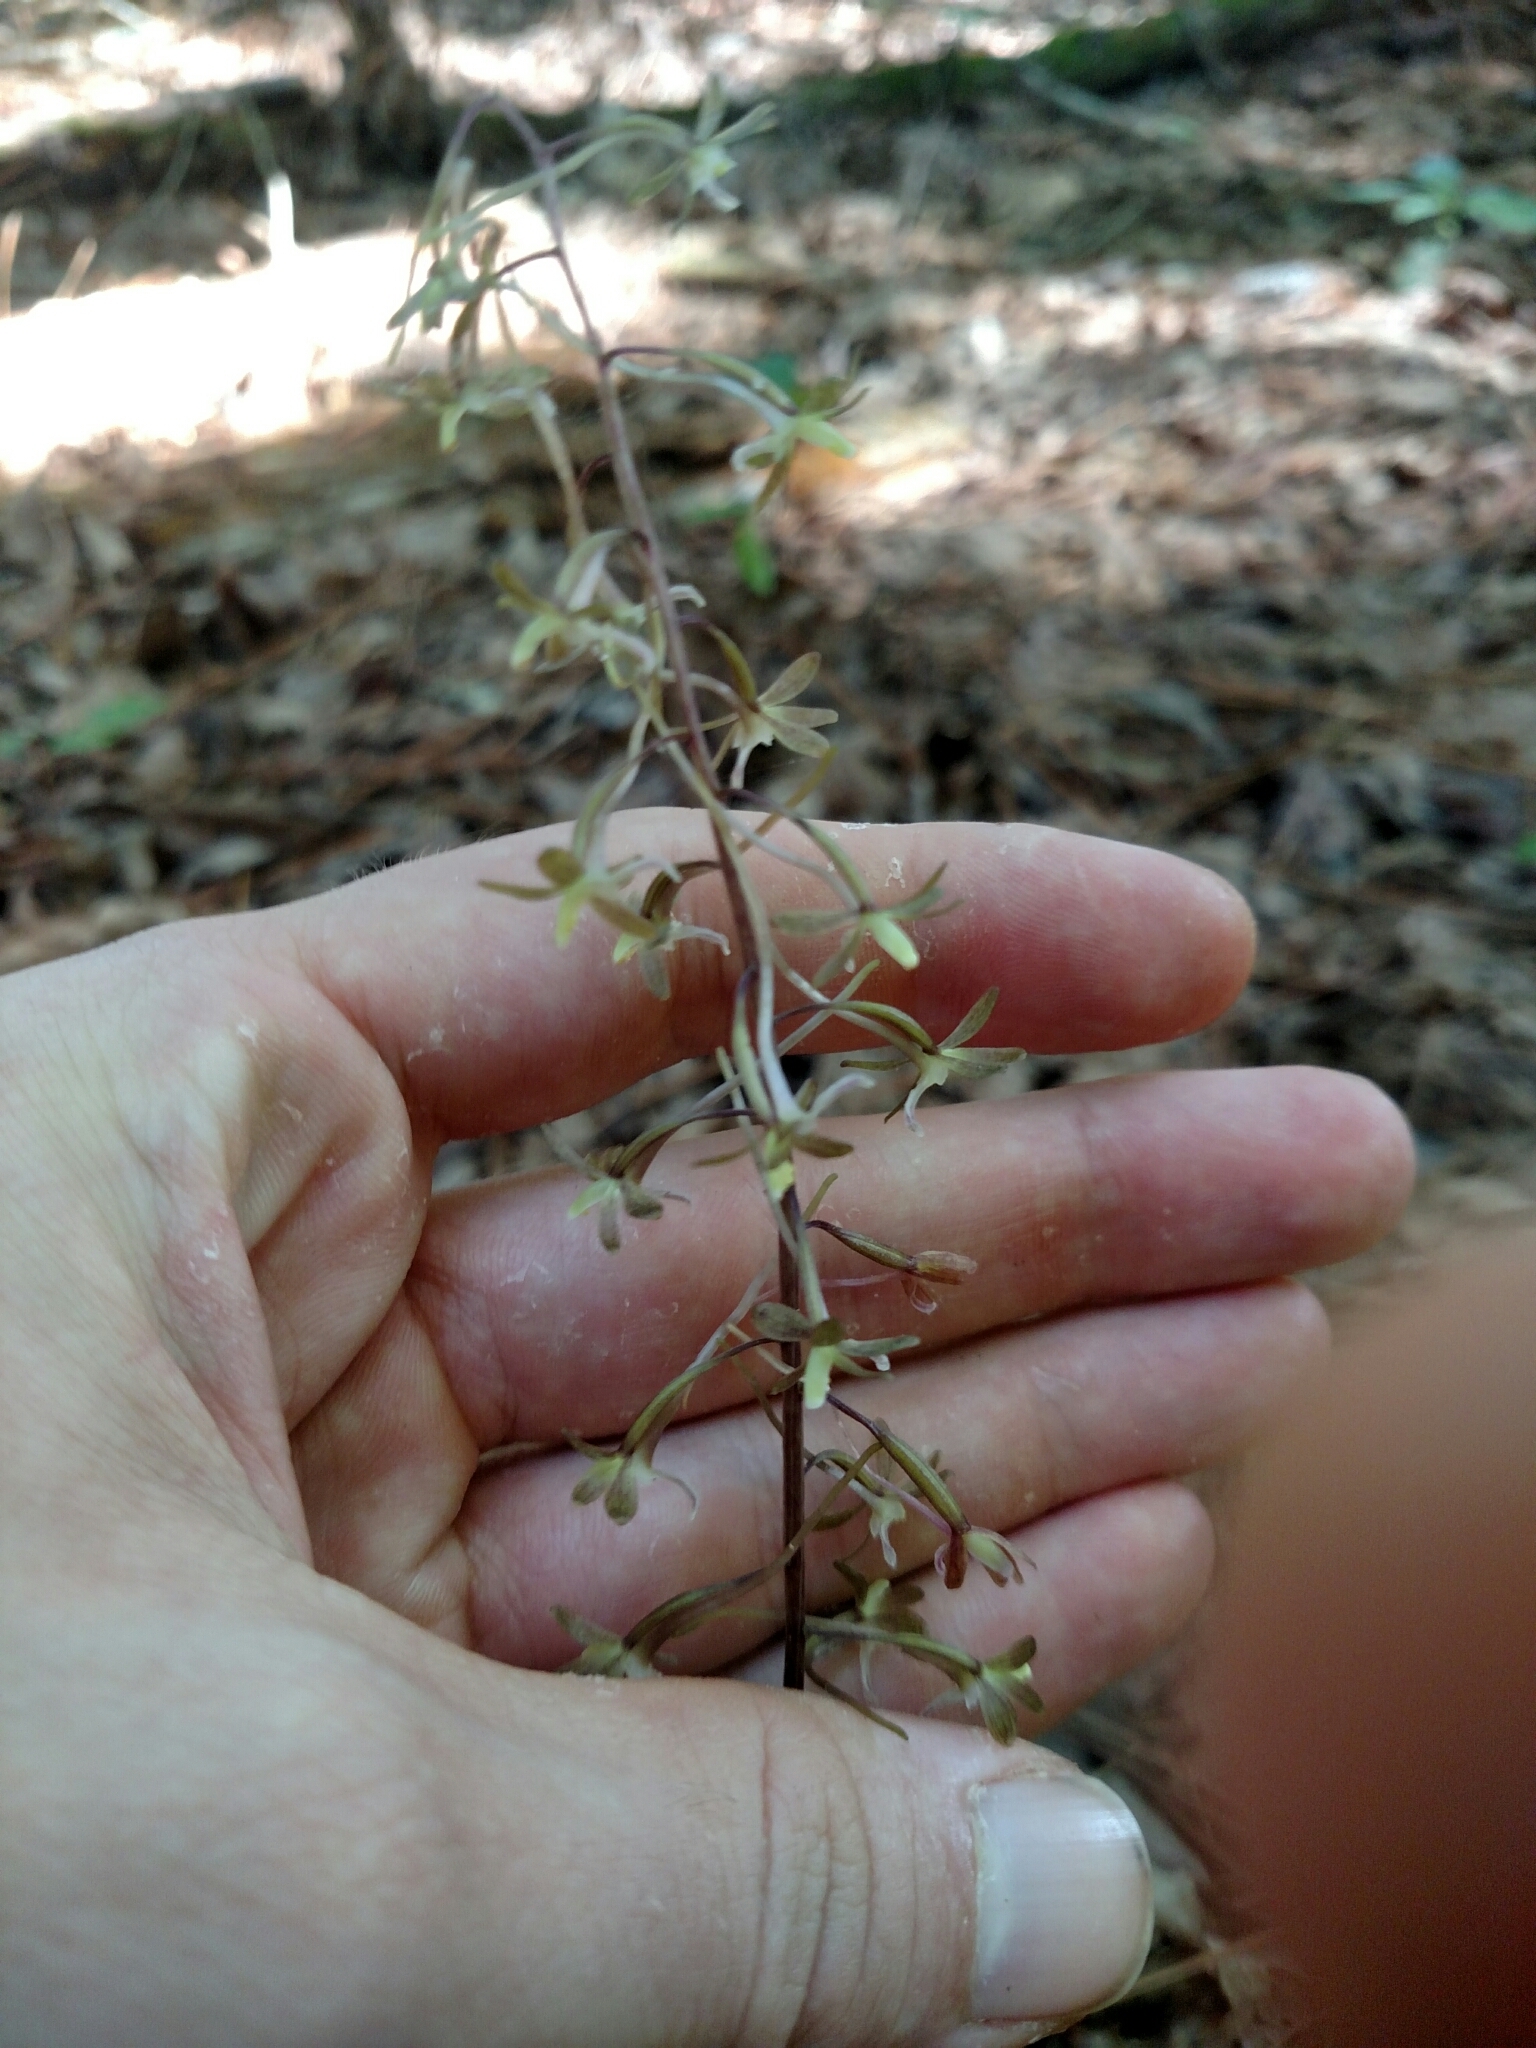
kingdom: Plantae
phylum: Tracheophyta
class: Liliopsida
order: Asparagales
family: Orchidaceae
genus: Tipularia
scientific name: Tipularia discolor
